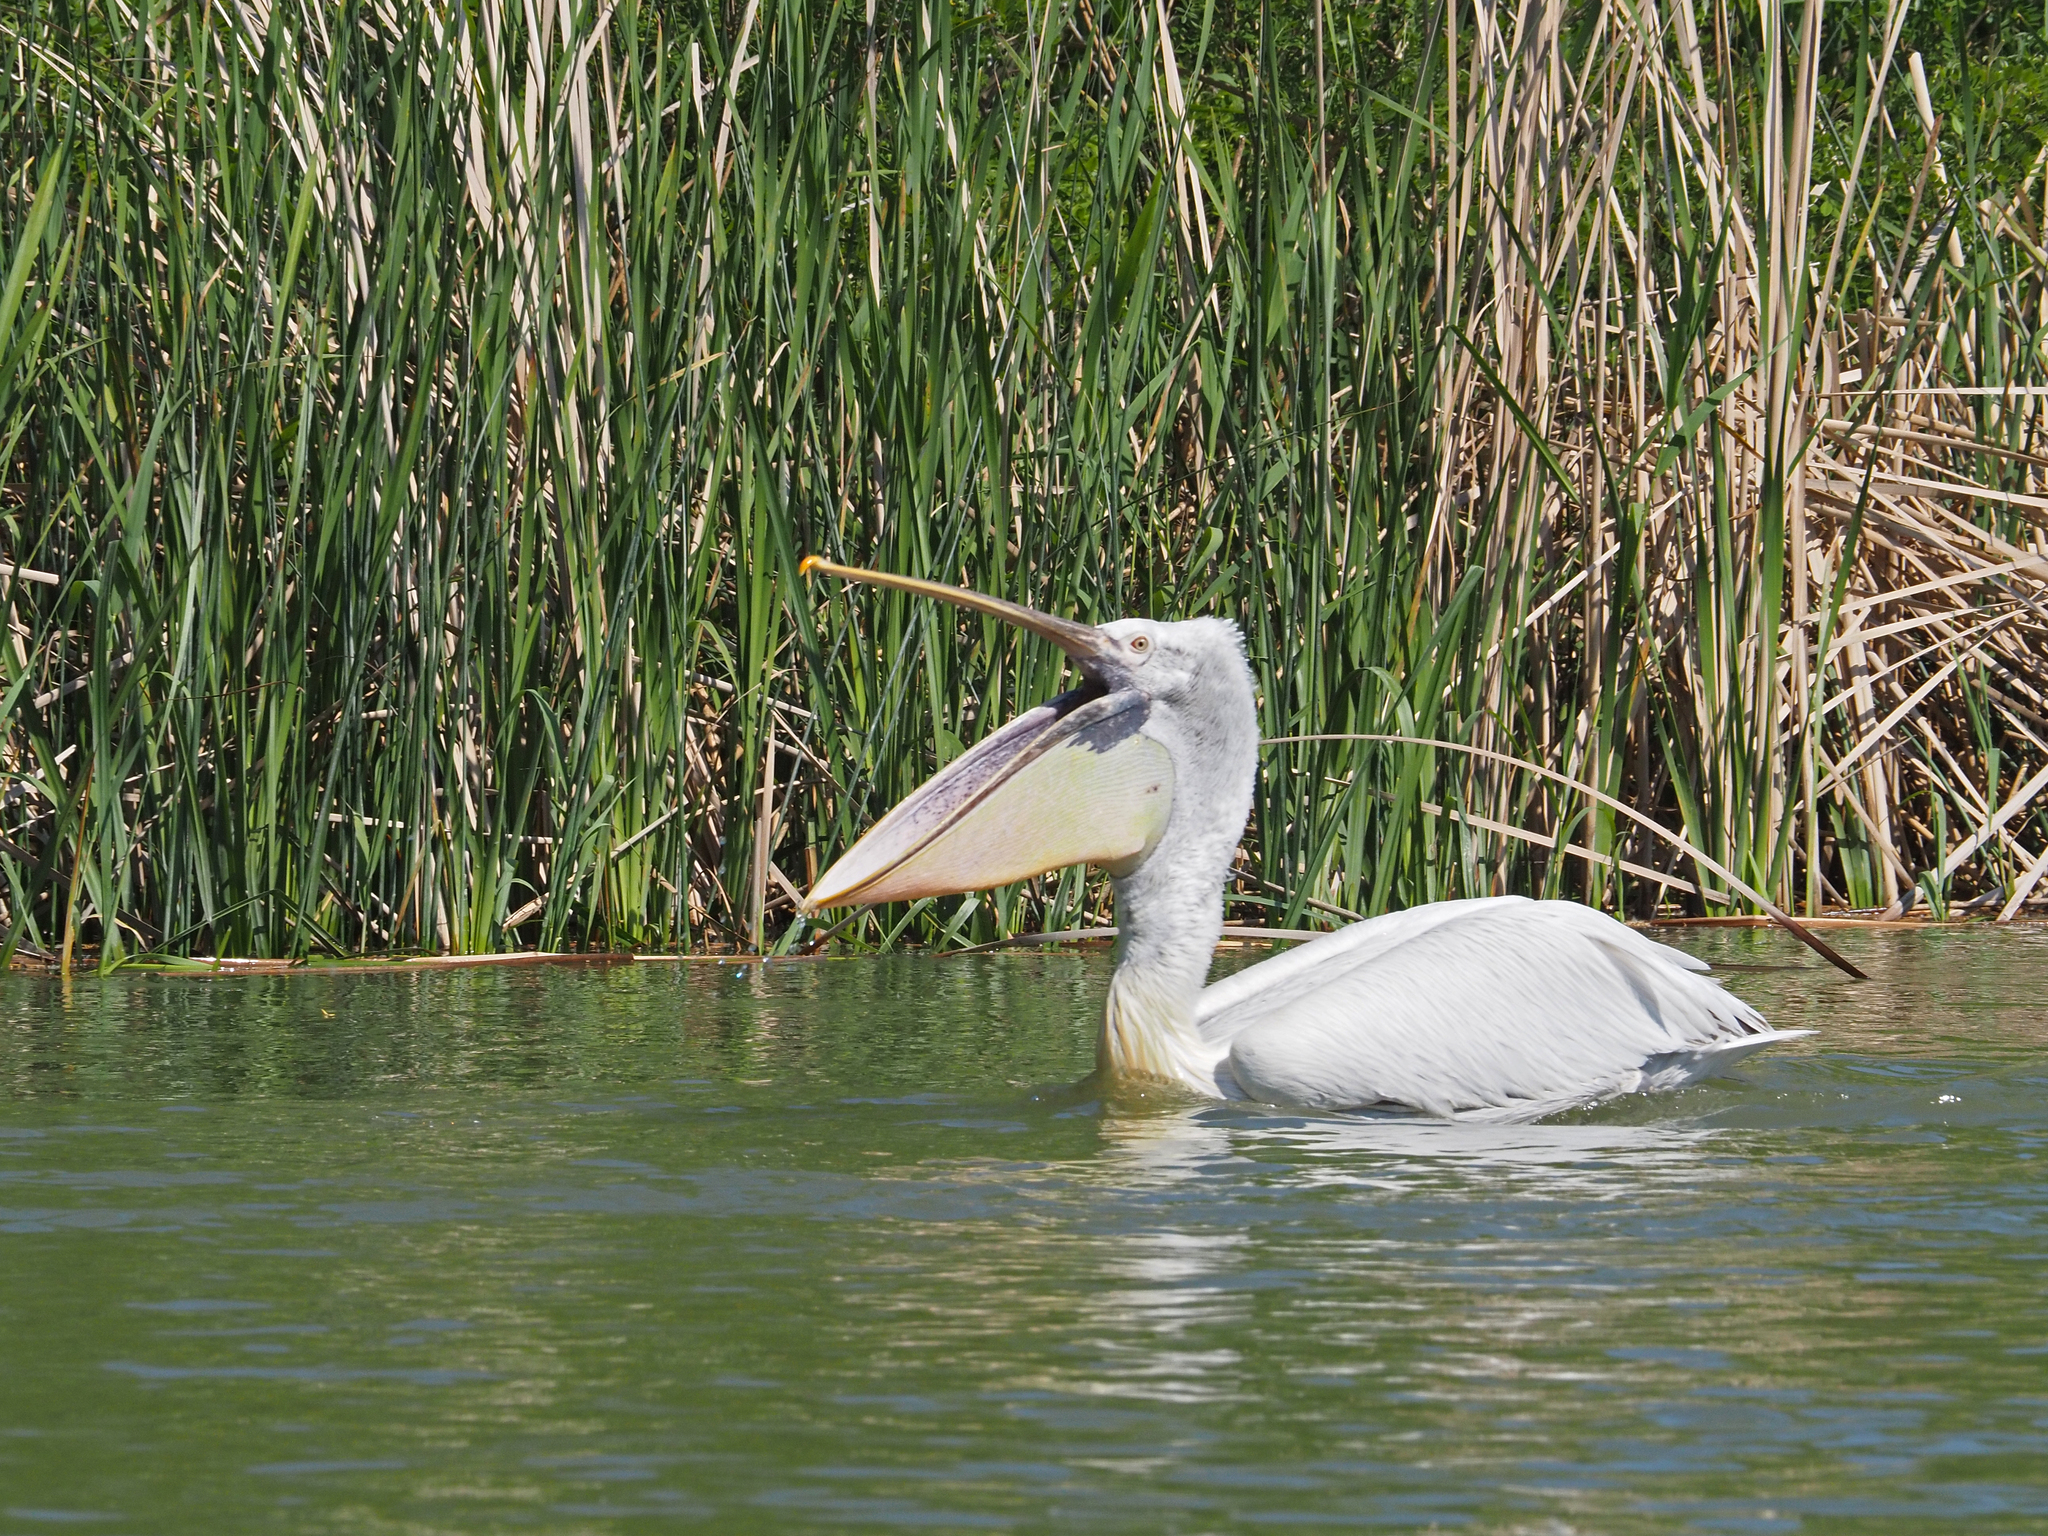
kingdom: Animalia
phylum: Chordata
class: Aves
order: Pelecaniformes
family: Pelecanidae
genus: Pelecanus
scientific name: Pelecanus crispus
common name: Dalmatian pelican
